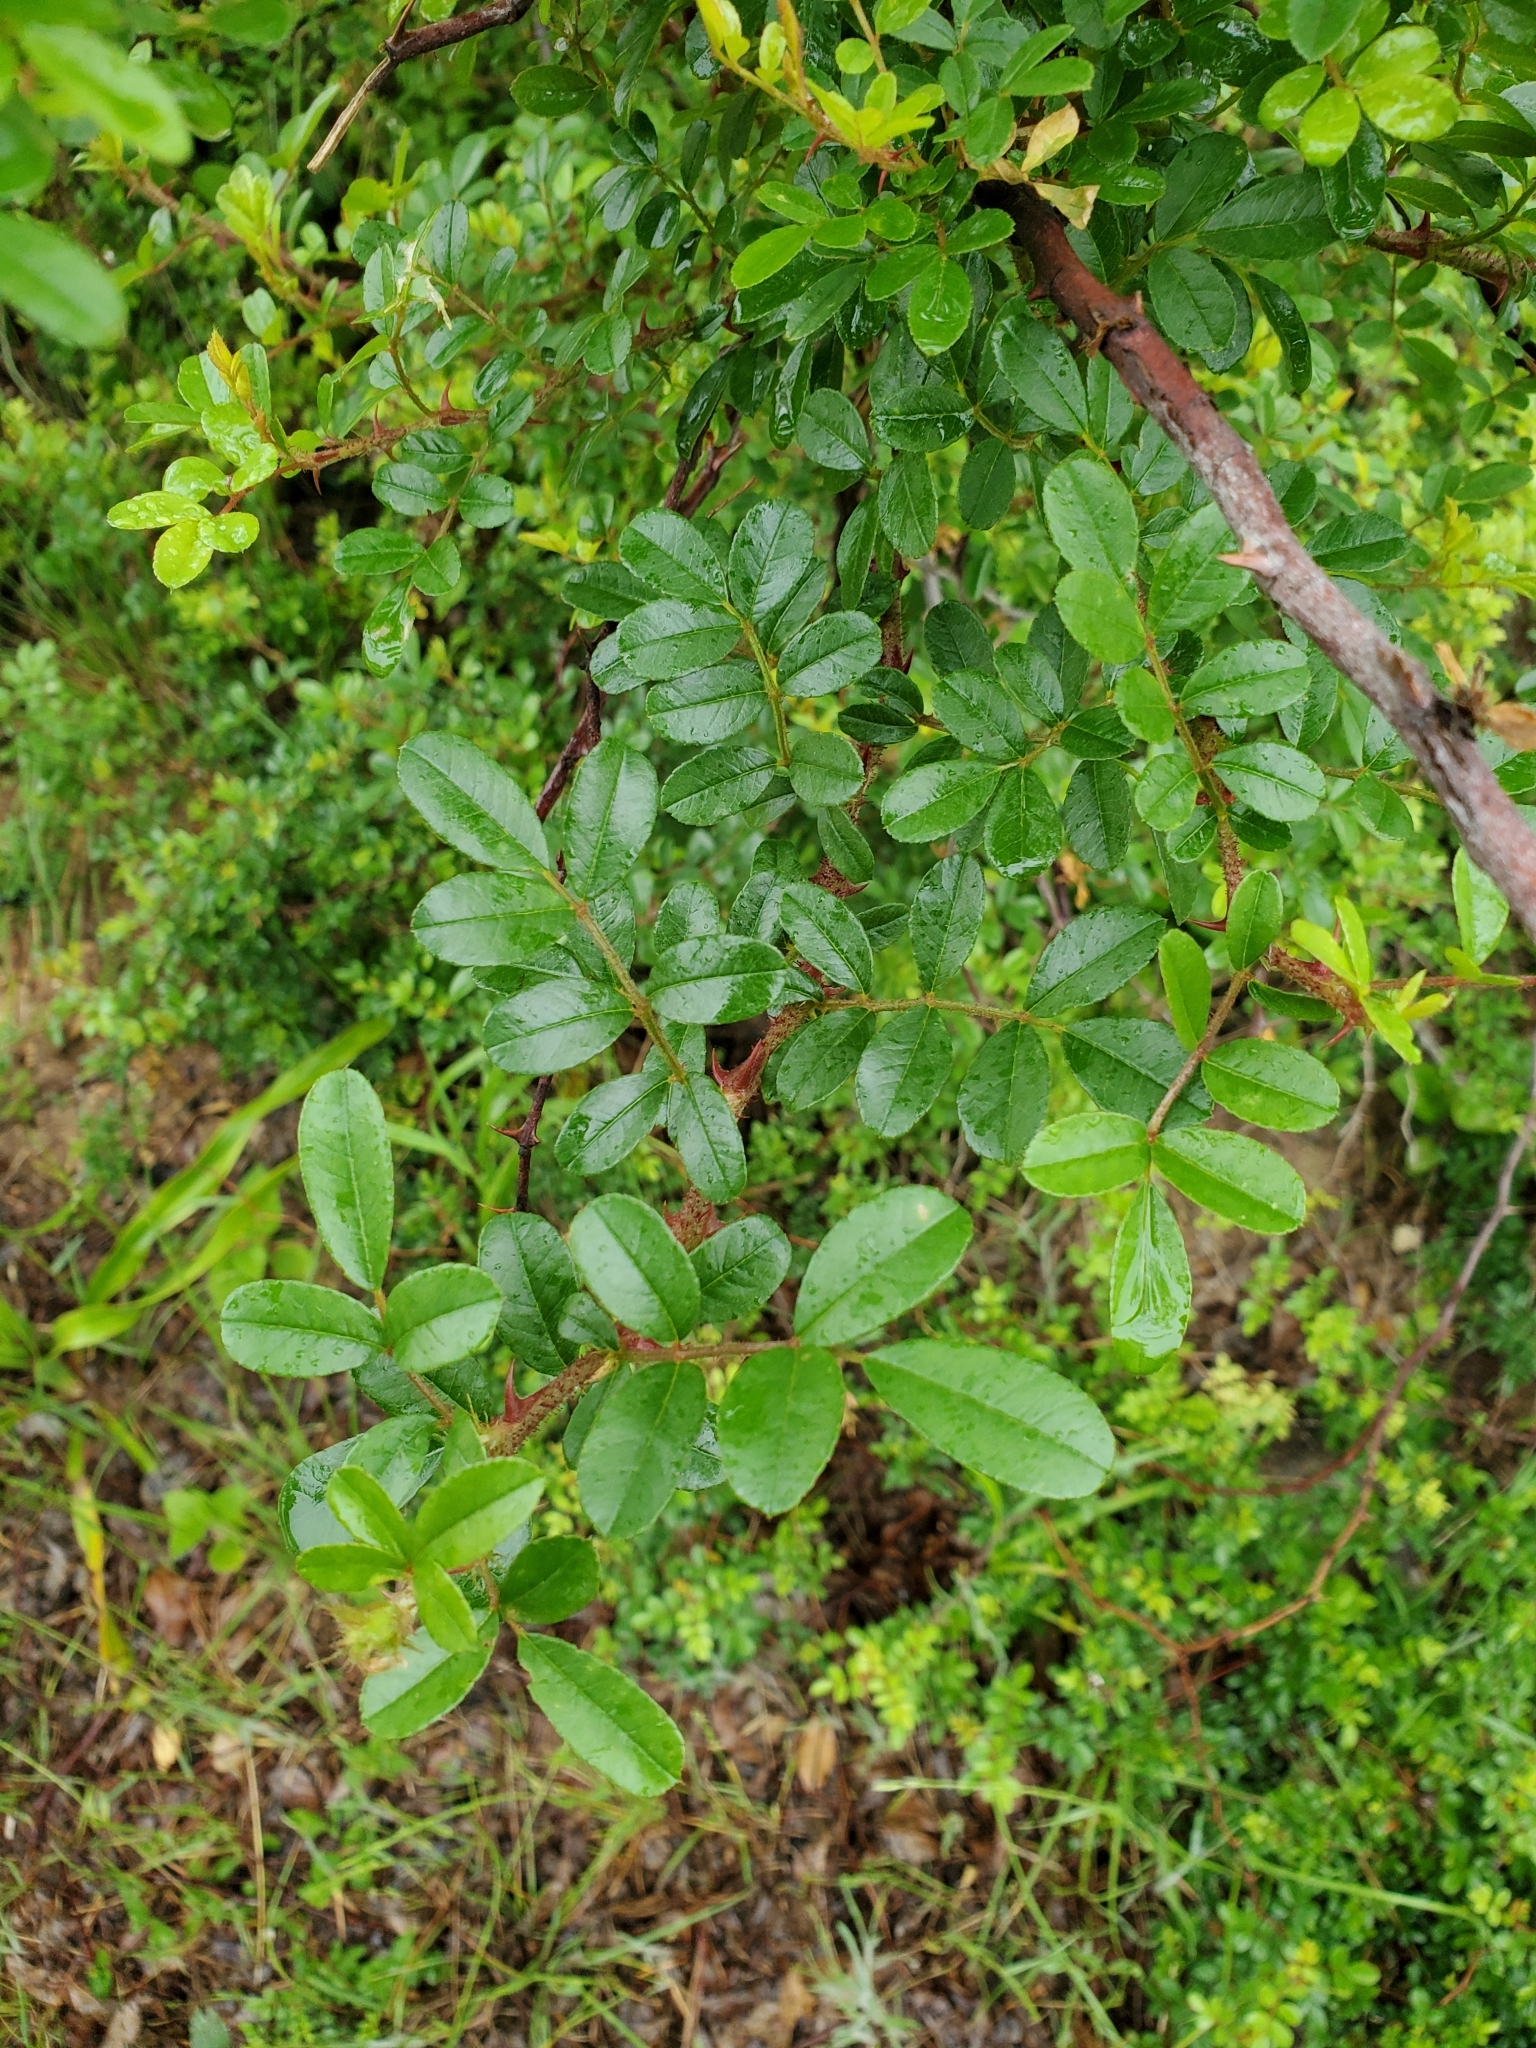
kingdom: Plantae
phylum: Tracheophyta
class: Magnoliopsida
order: Rosales
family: Rosaceae
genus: Rosa
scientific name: Rosa bracteata
